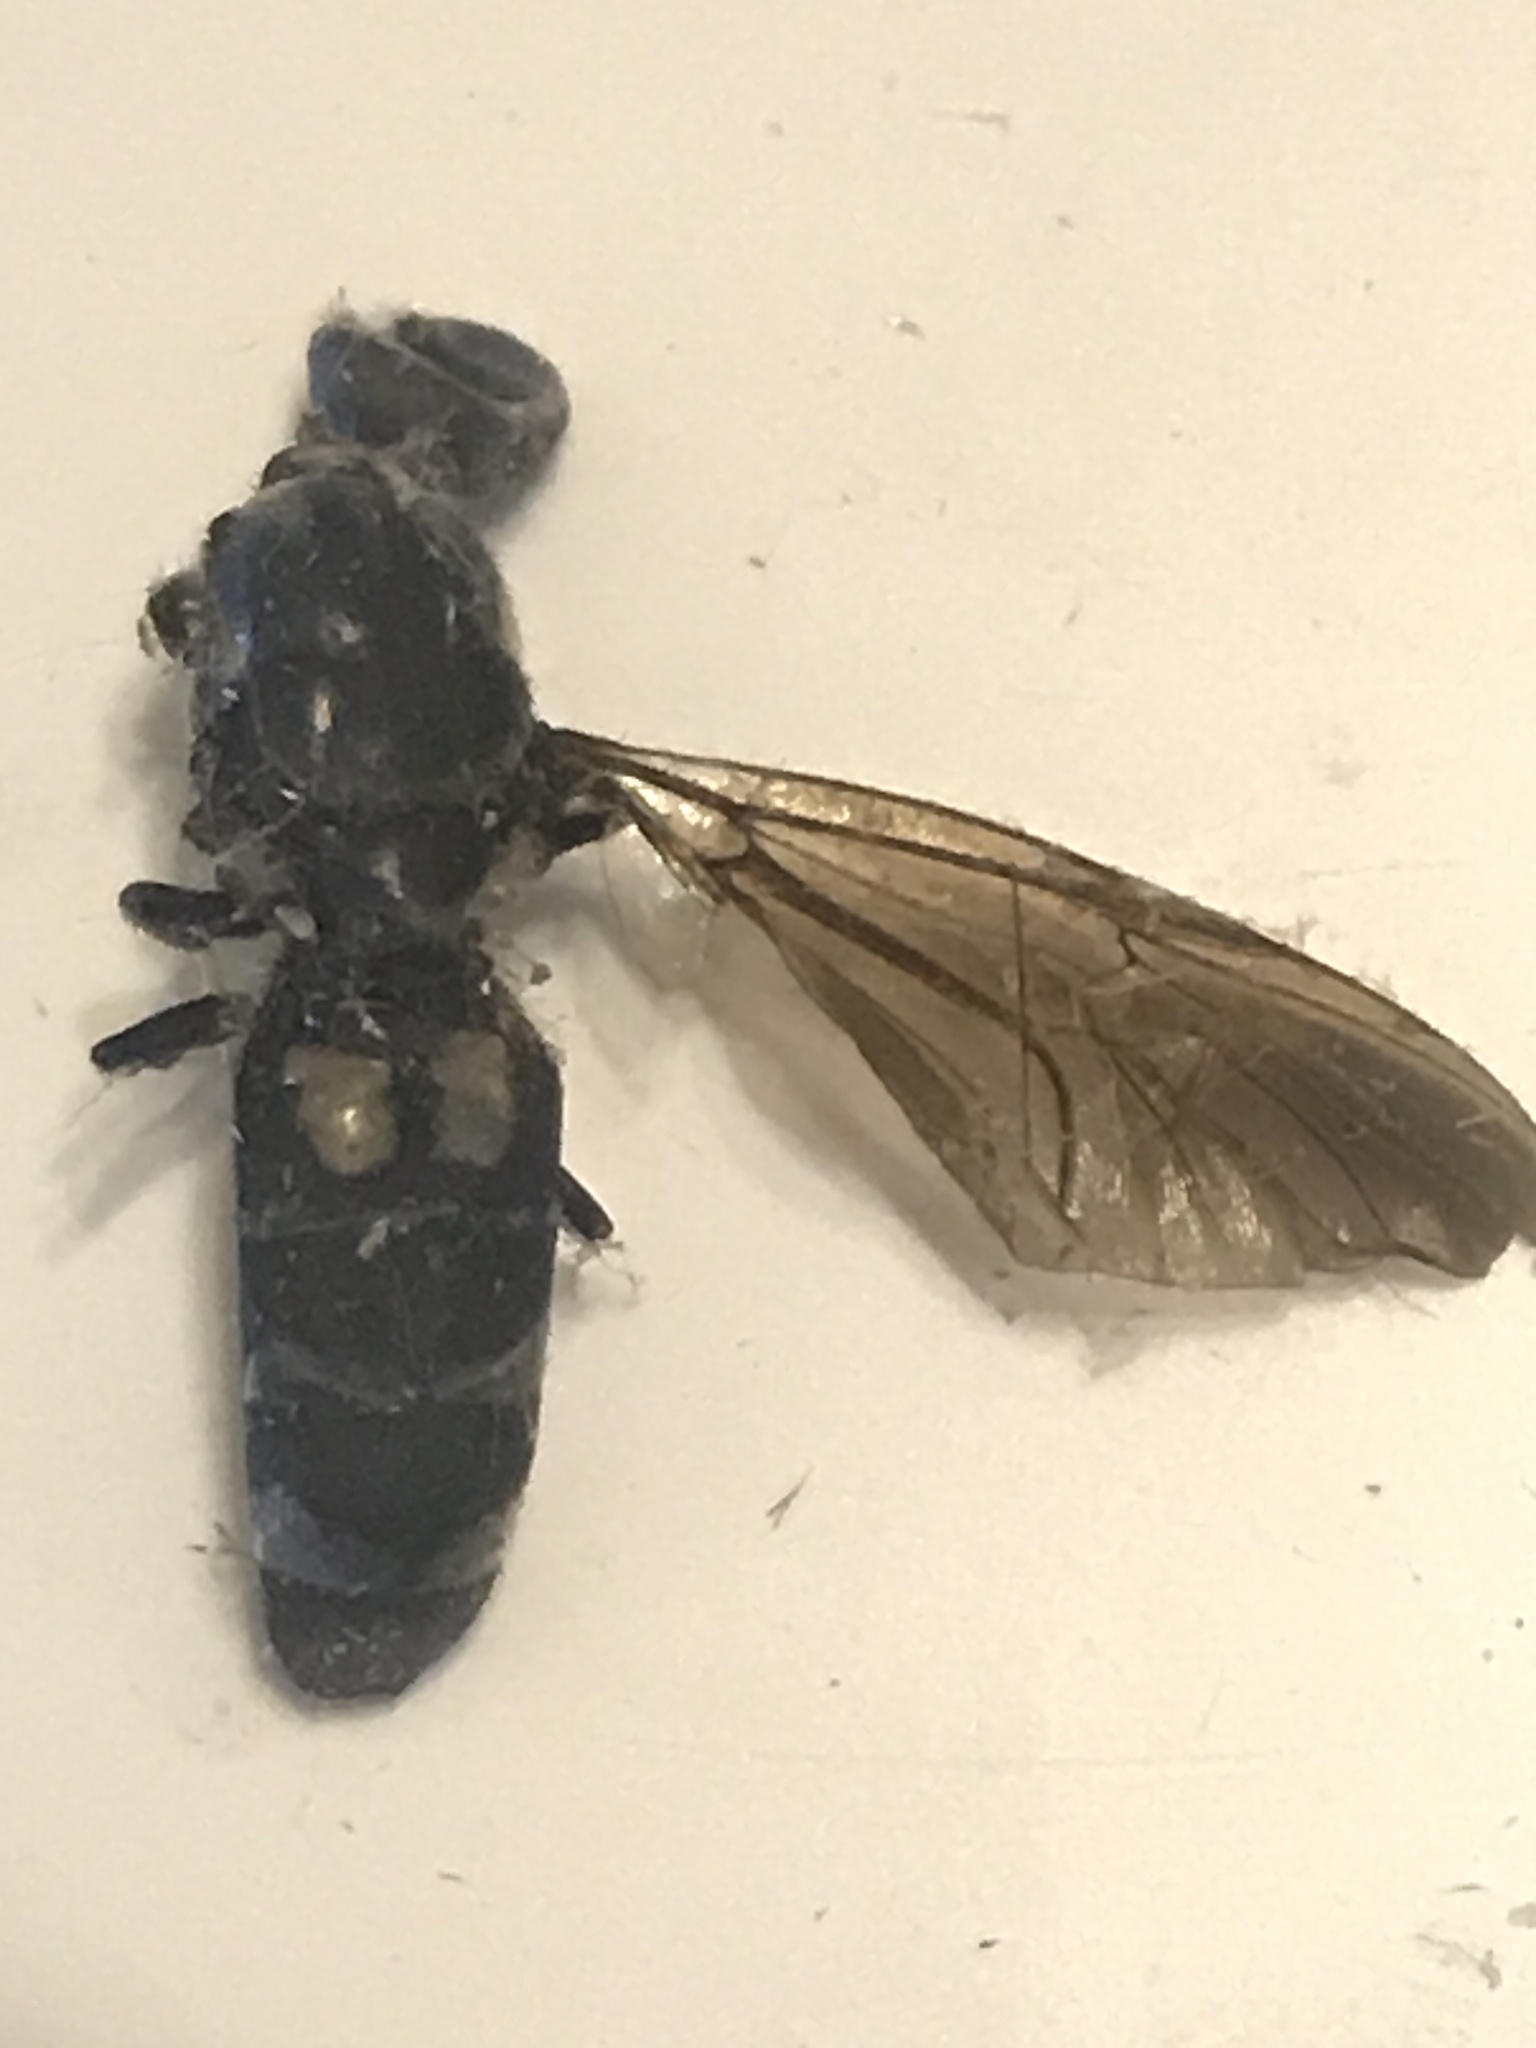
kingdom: Animalia
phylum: Arthropoda
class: Insecta
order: Diptera
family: Stratiomyidae
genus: Hermetia
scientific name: Hermetia illucens
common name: Black soldier fly
